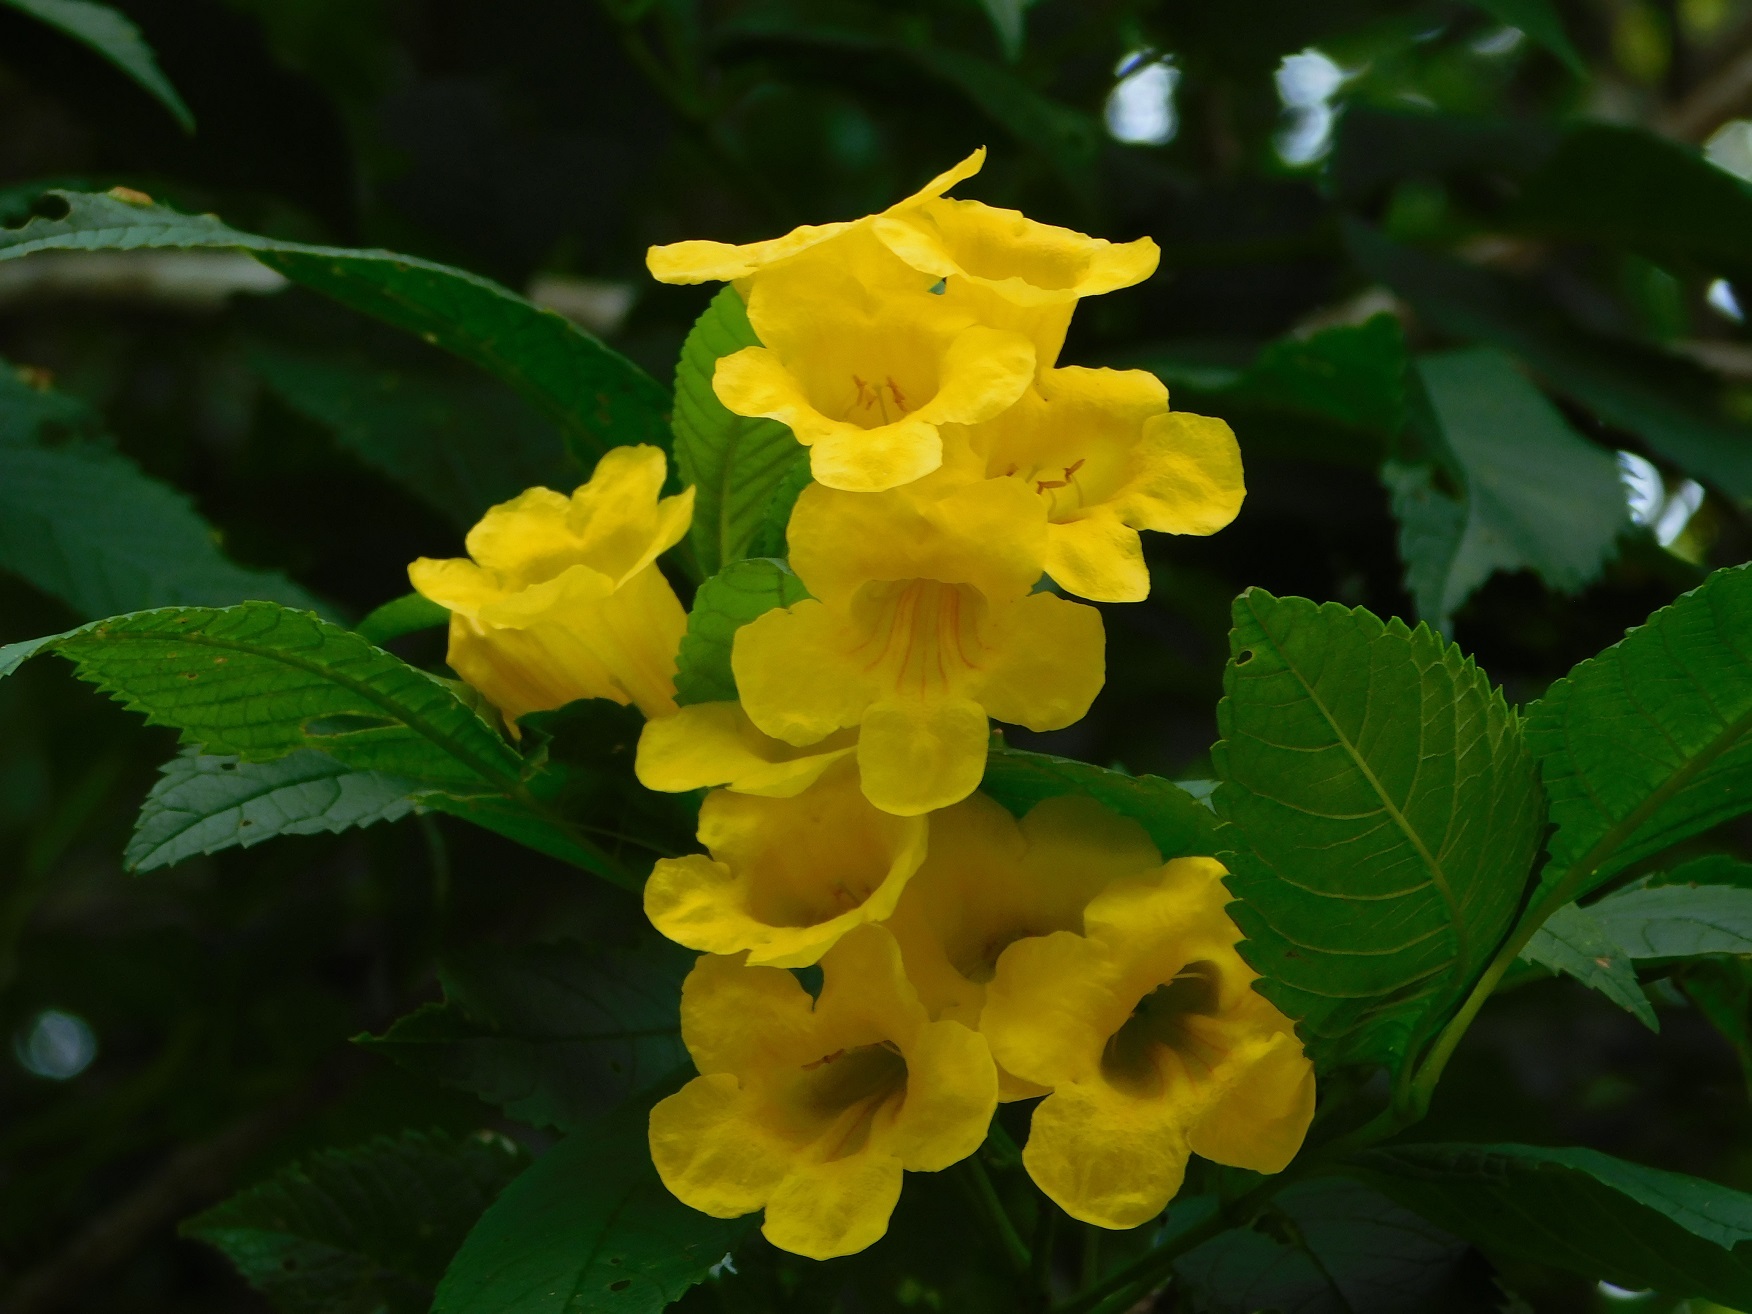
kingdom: Plantae
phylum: Tracheophyta
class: Magnoliopsida
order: Lamiales
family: Bignoniaceae
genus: Tecoma
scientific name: Tecoma stans
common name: Yellow trumpetbush
